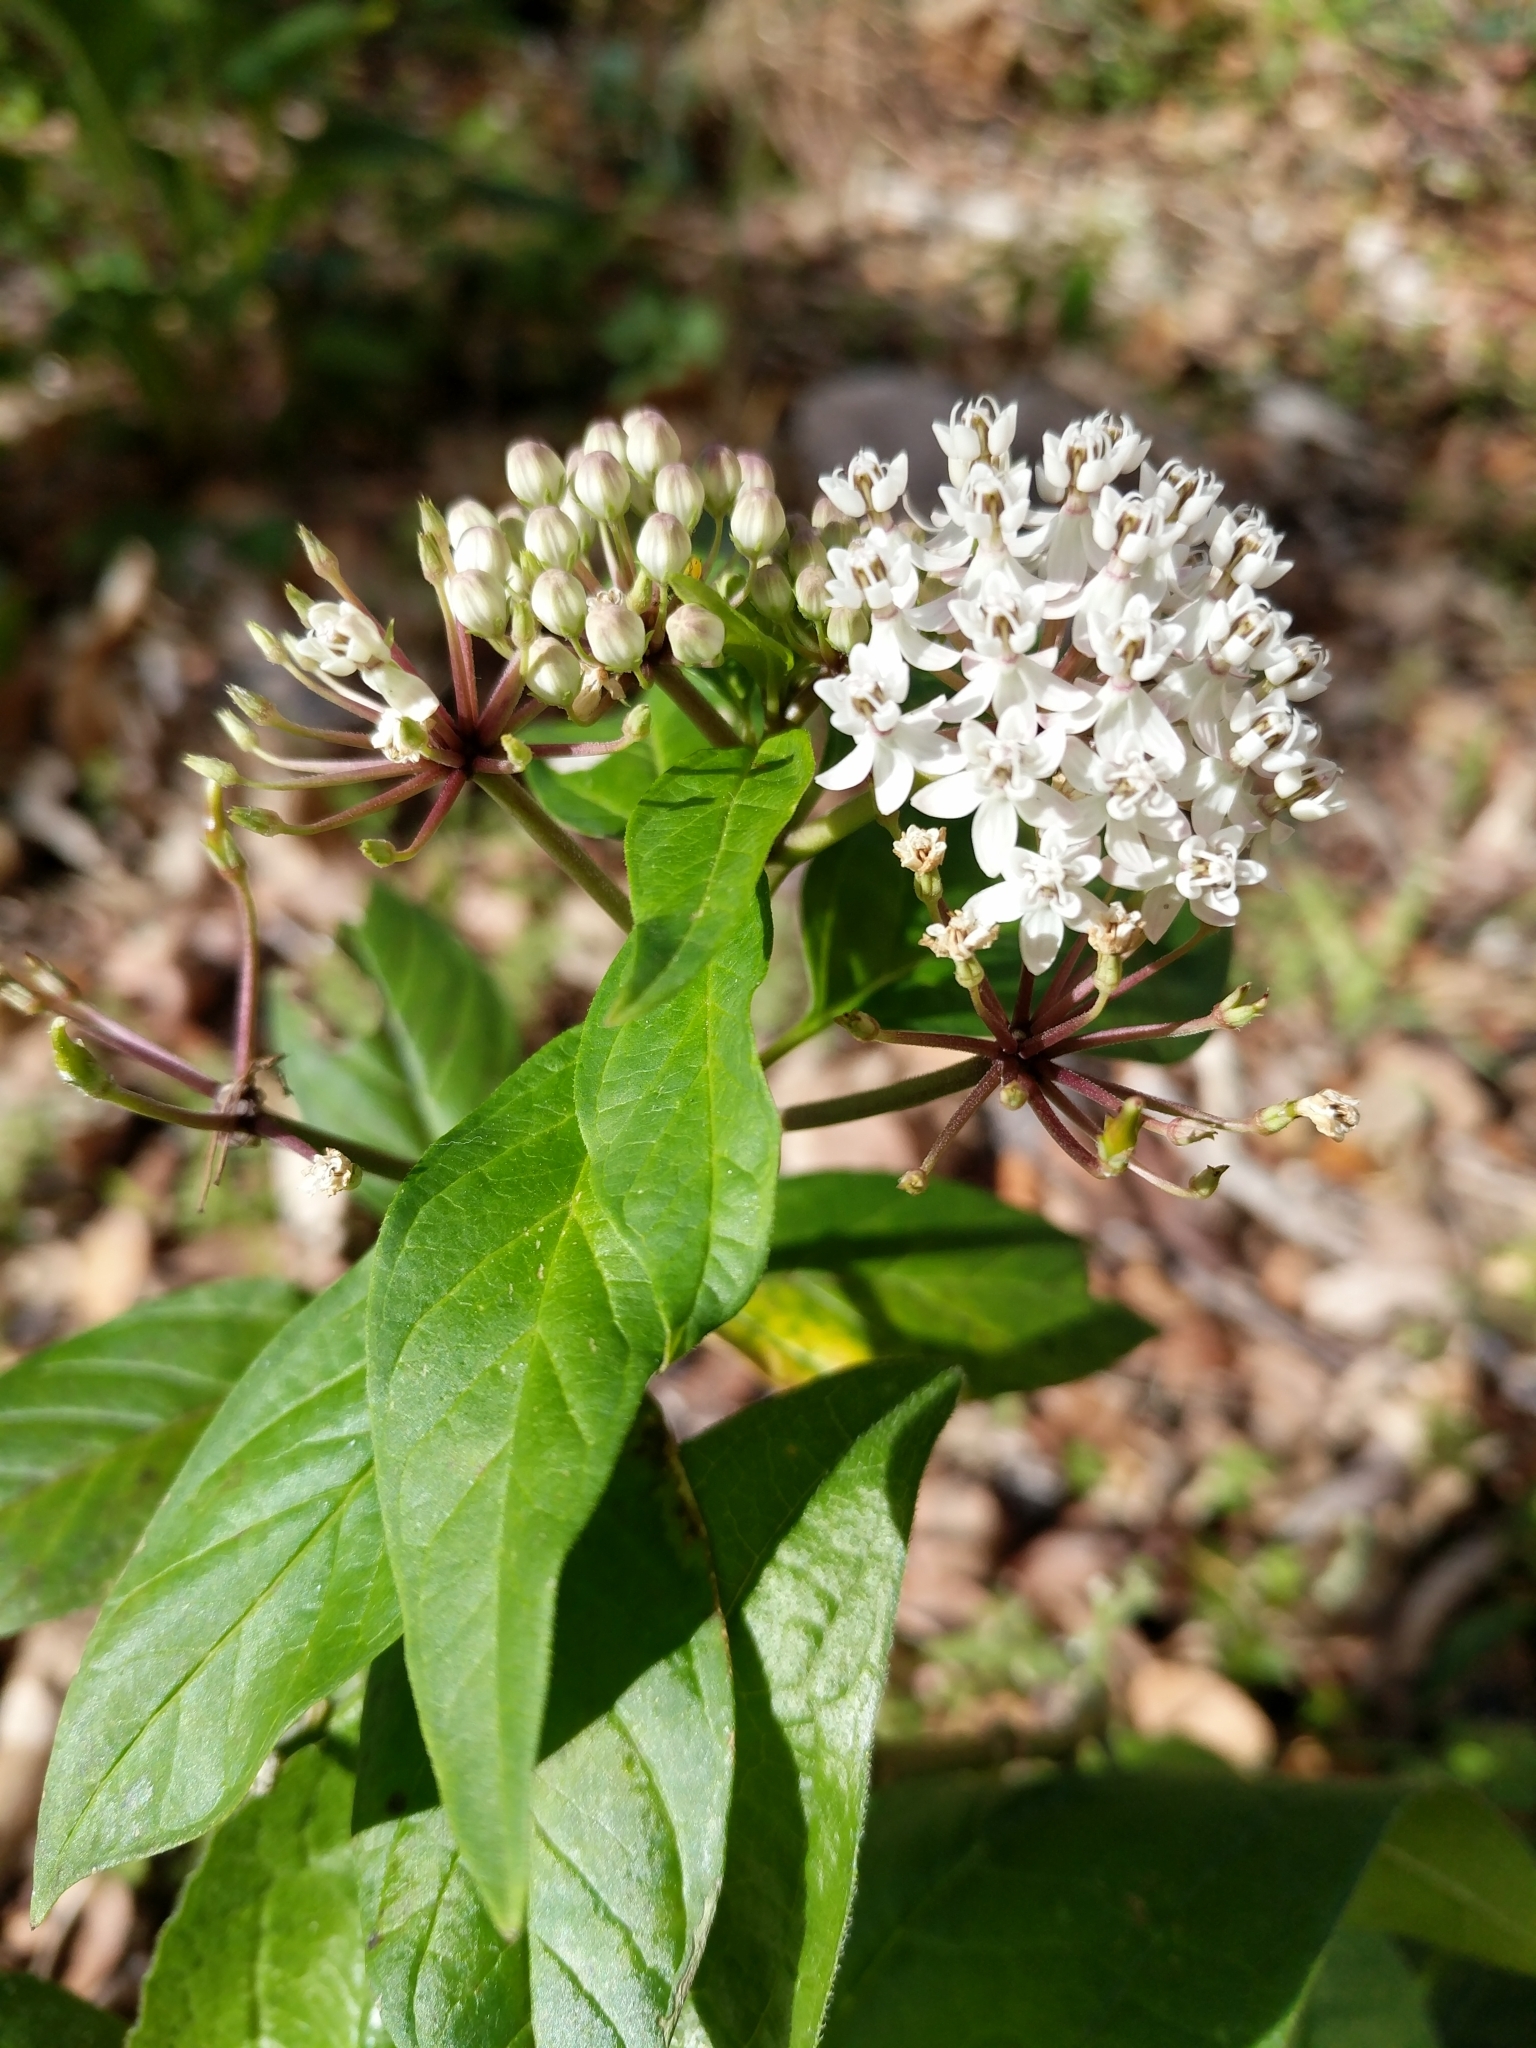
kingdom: Plantae
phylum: Tracheophyta
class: Magnoliopsida
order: Gentianales
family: Apocynaceae
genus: Asclepias
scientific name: Asclepias texana
